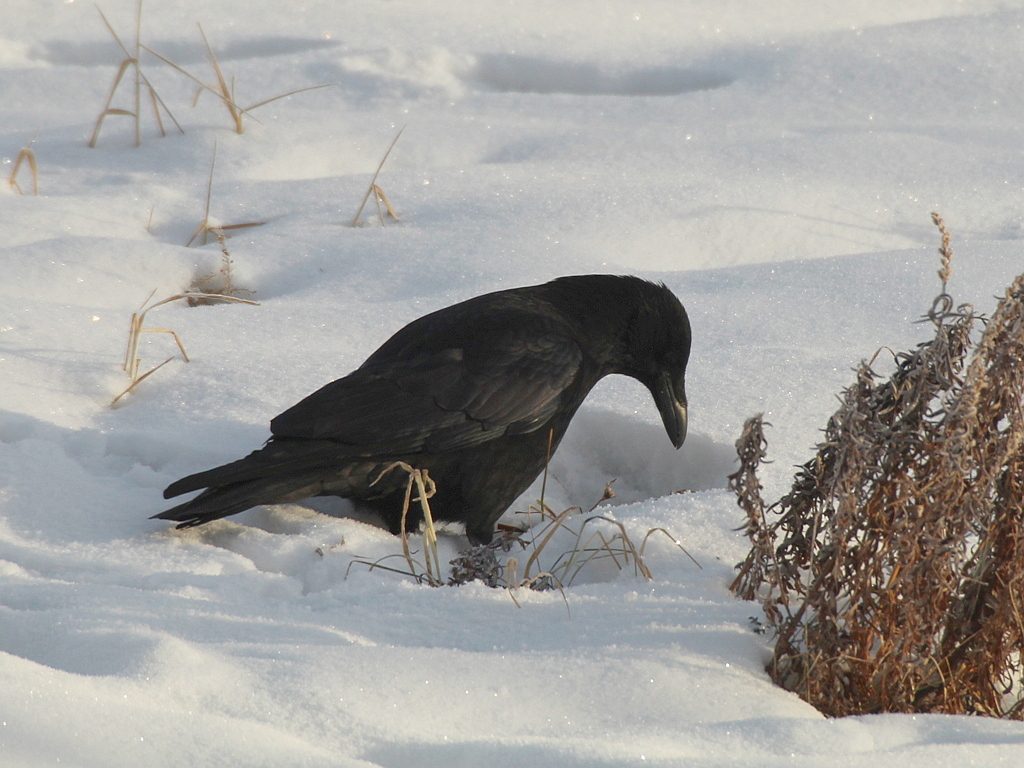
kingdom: Animalia
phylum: Chordata
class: Aves
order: Passeriformes
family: Corvidae
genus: Corvus
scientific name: Corvus corone
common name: Carrion crow
